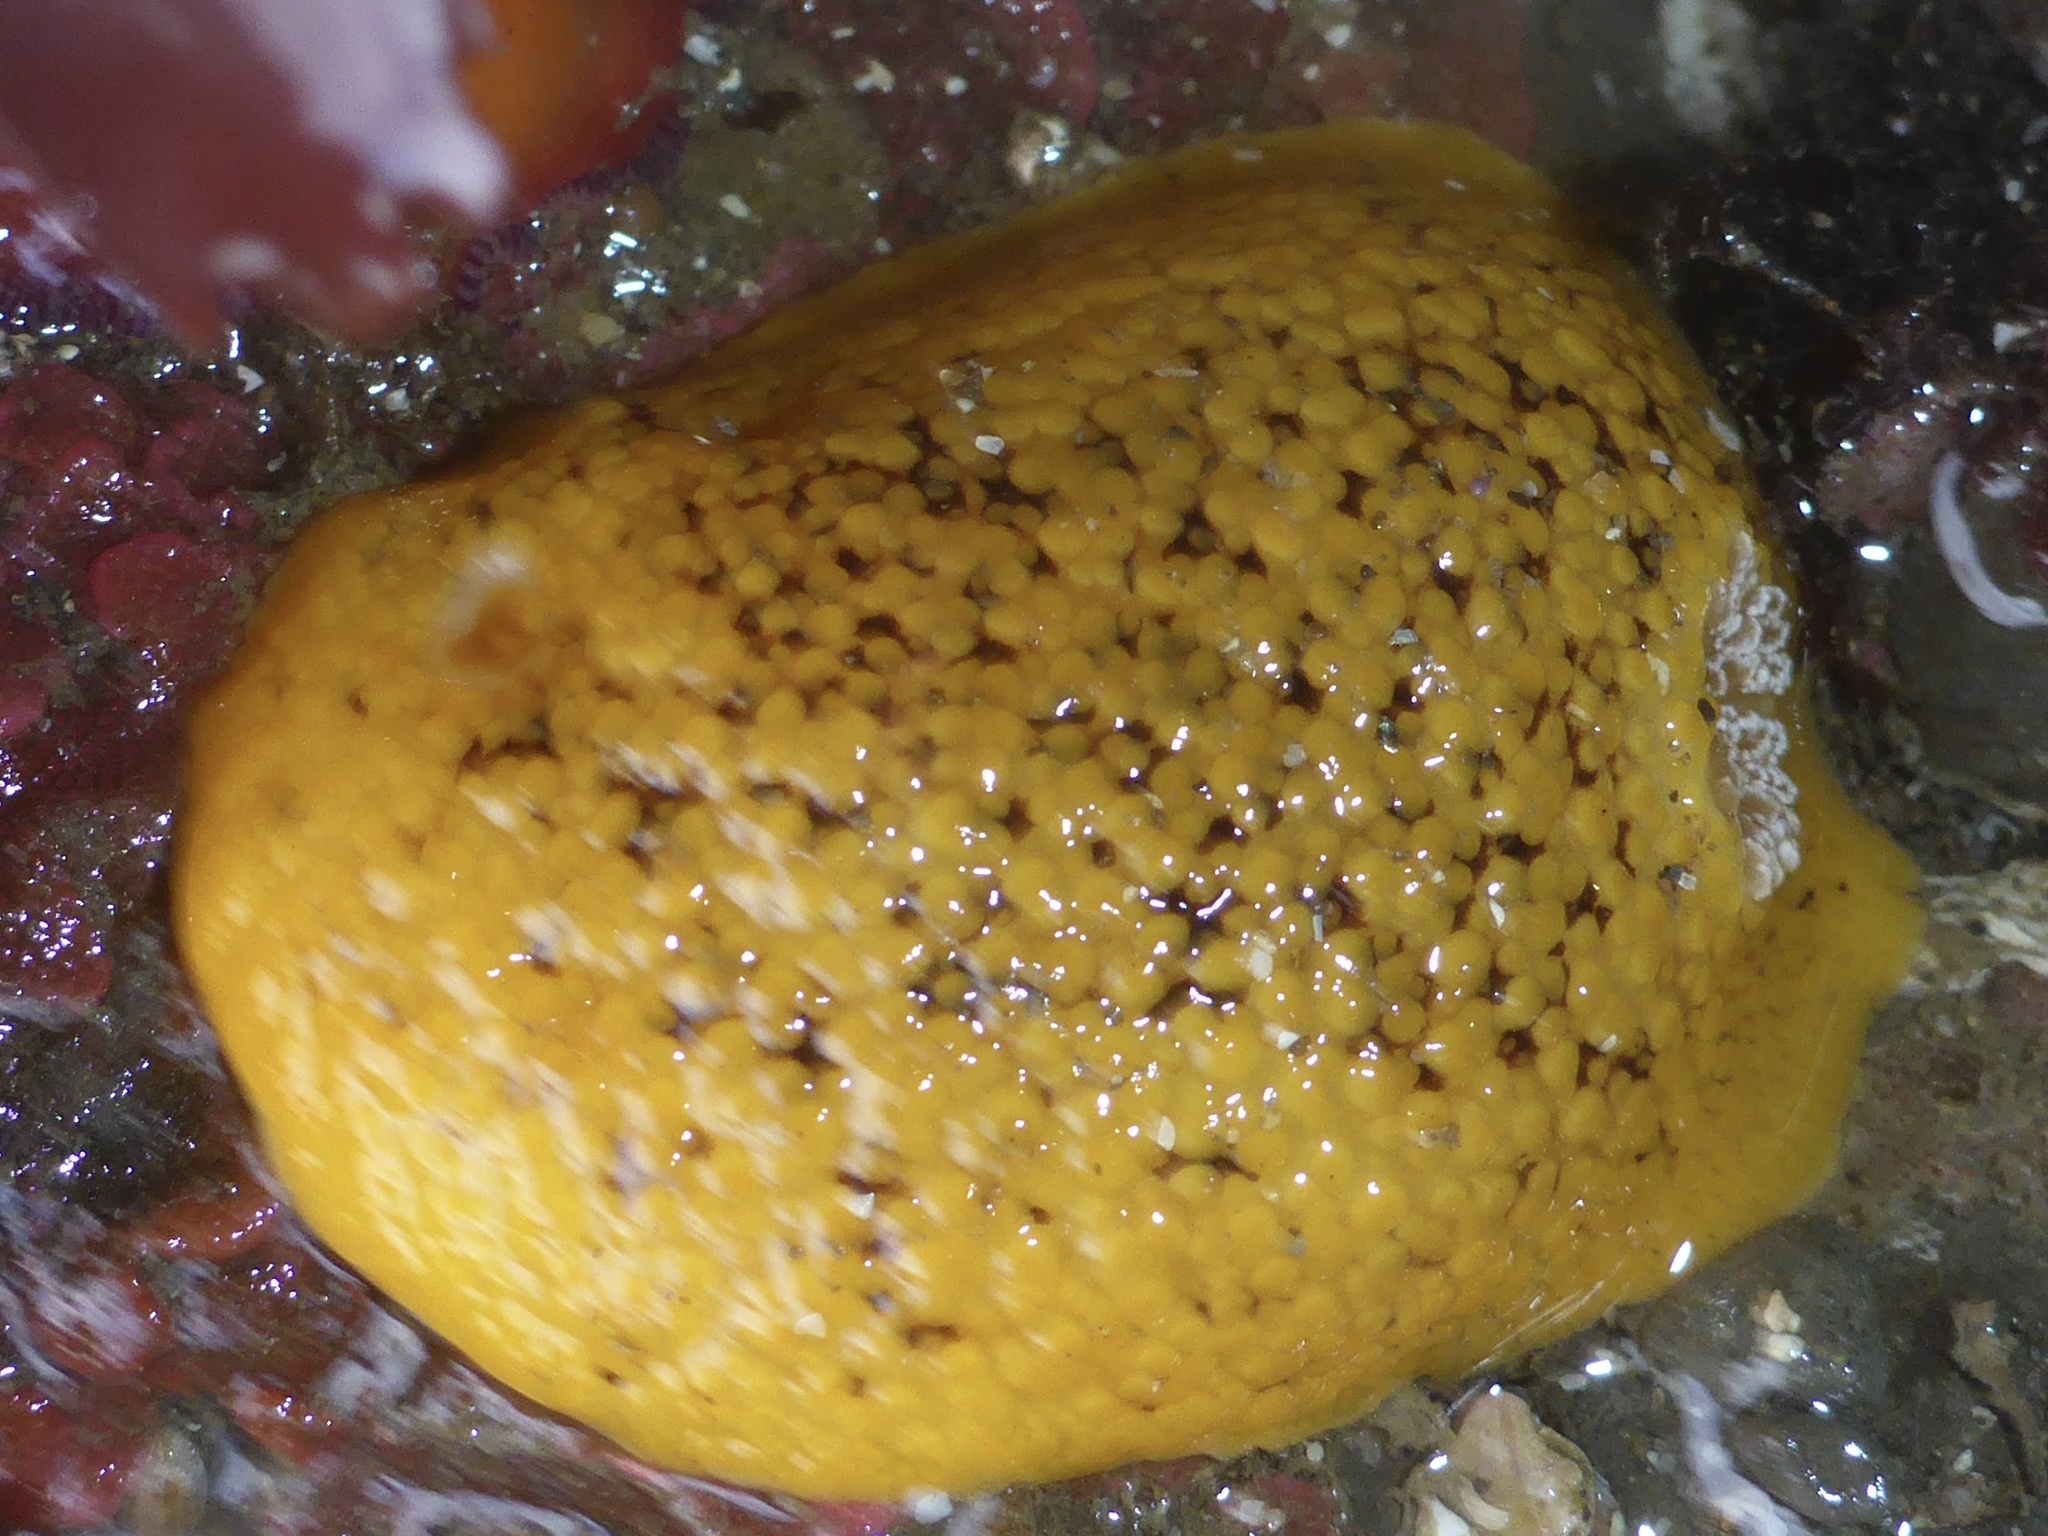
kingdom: Animalia
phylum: Mollusca
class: Gastropoda
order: Nudibranchia
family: Discodorididae
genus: Peltodoris
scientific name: Peltodoris nobilis
